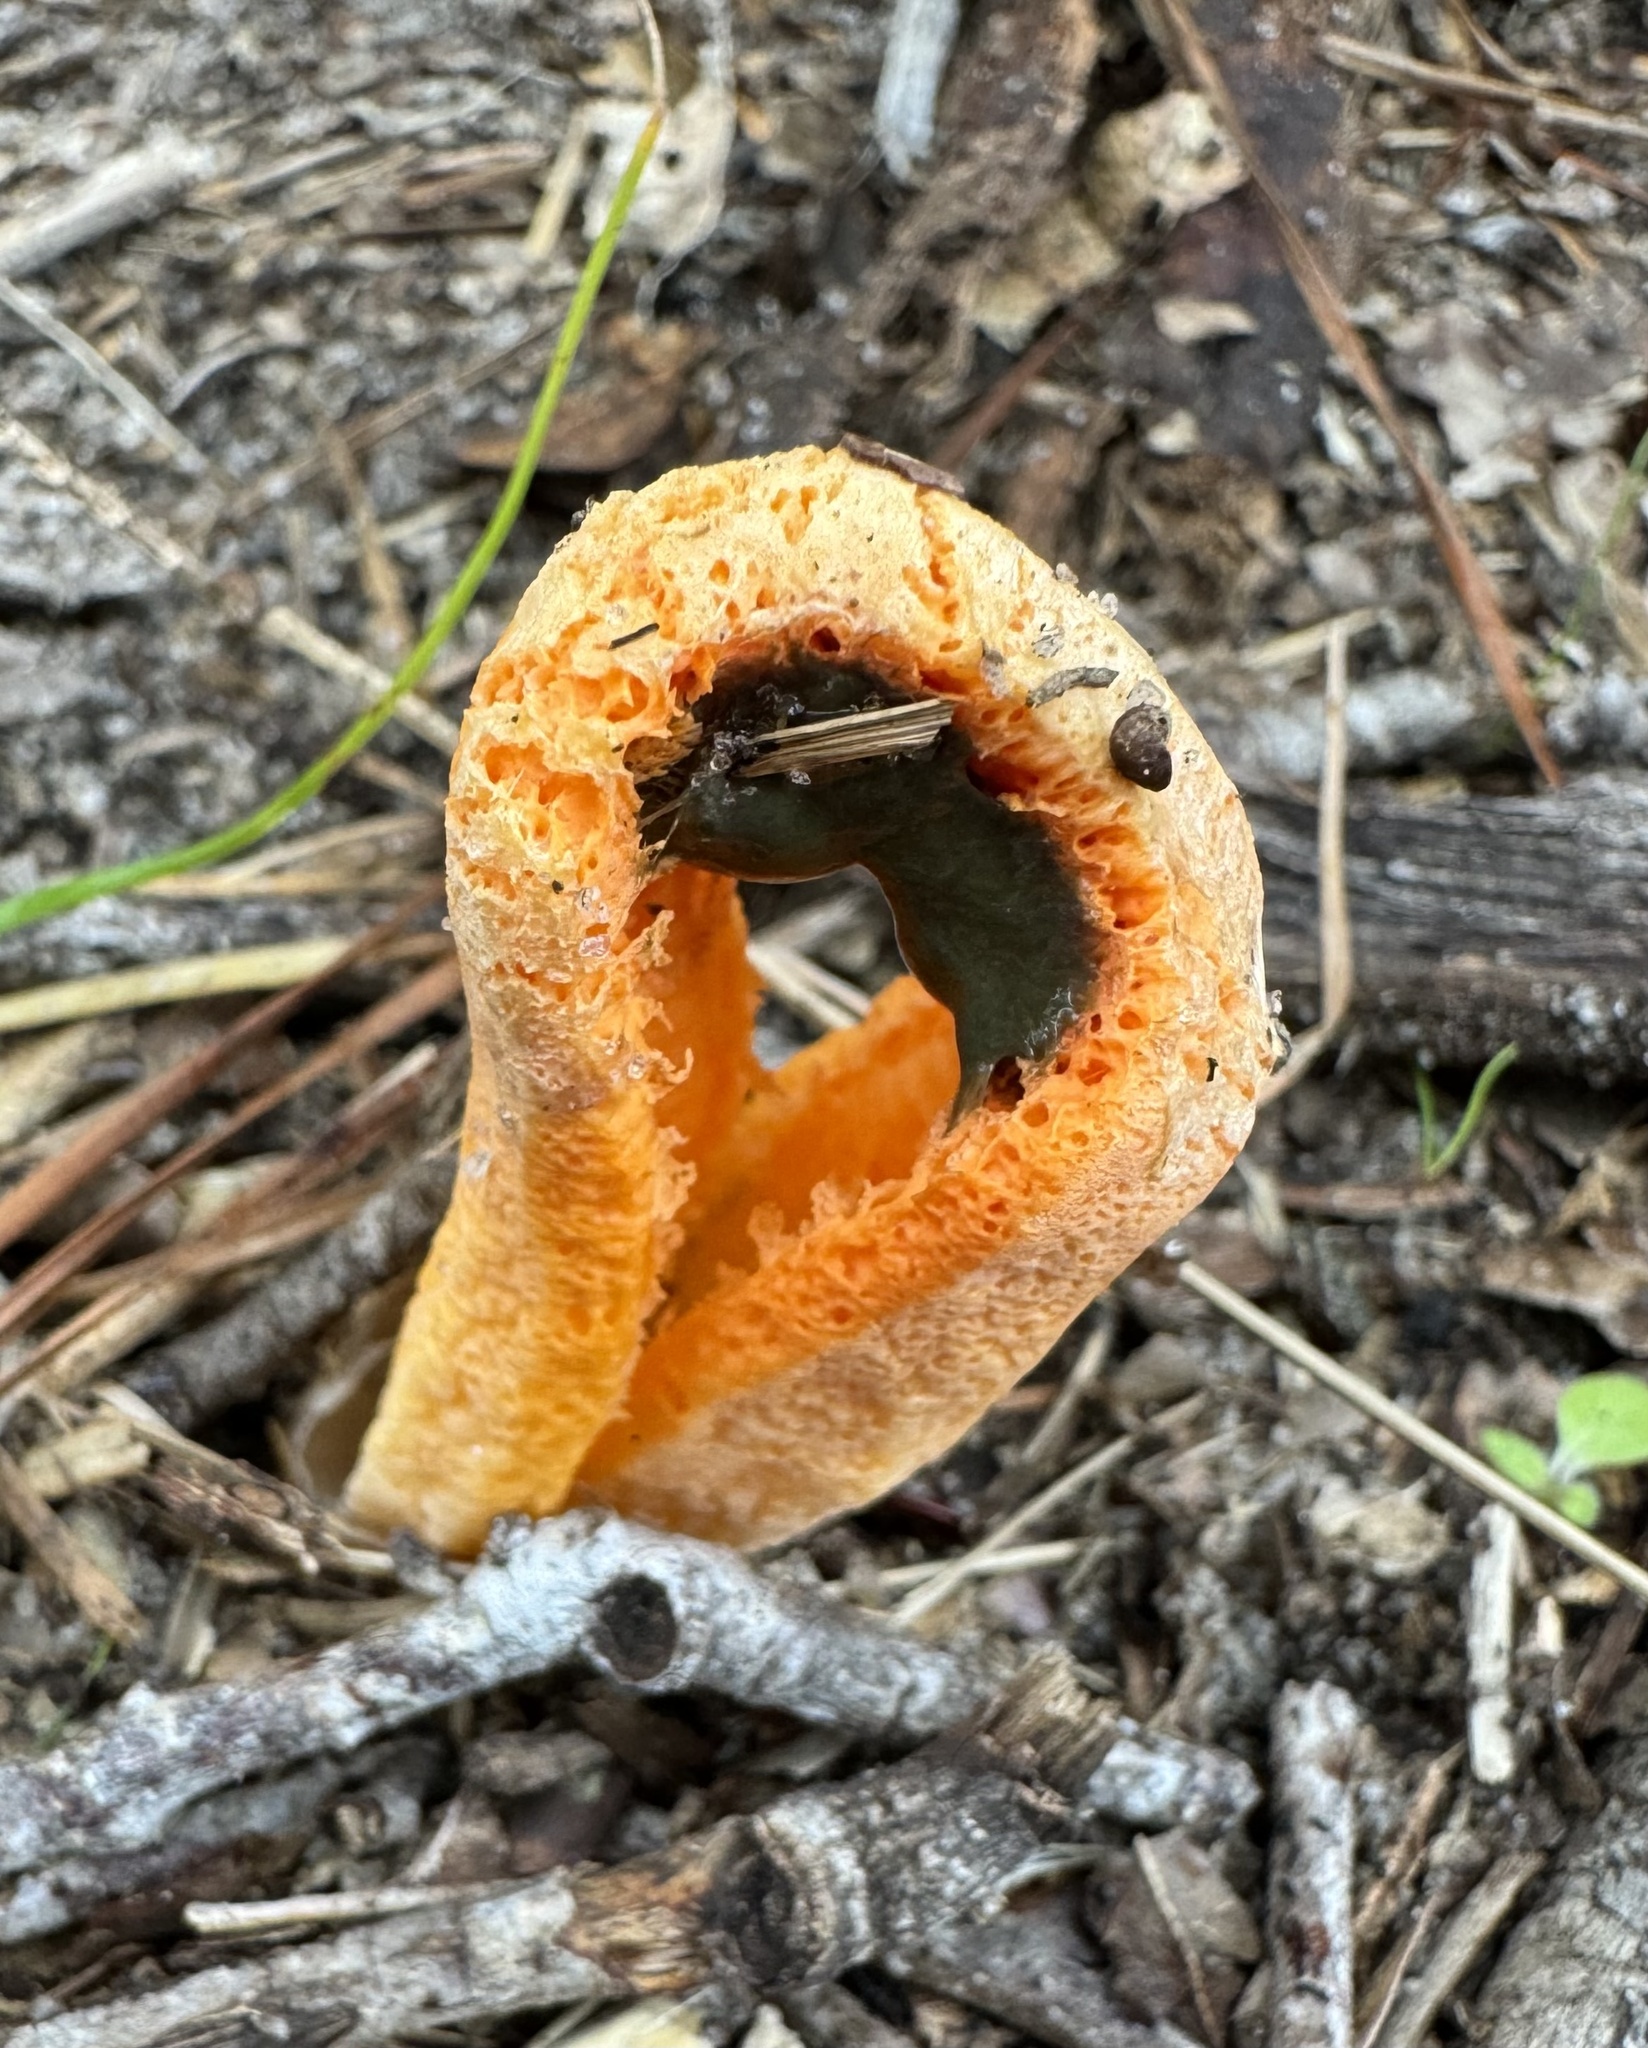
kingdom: Fungi
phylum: Basidiomycota
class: Agaricomycetes
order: Phallales
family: Phallaceae
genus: Clathrus
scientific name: Clathrus columnatus
